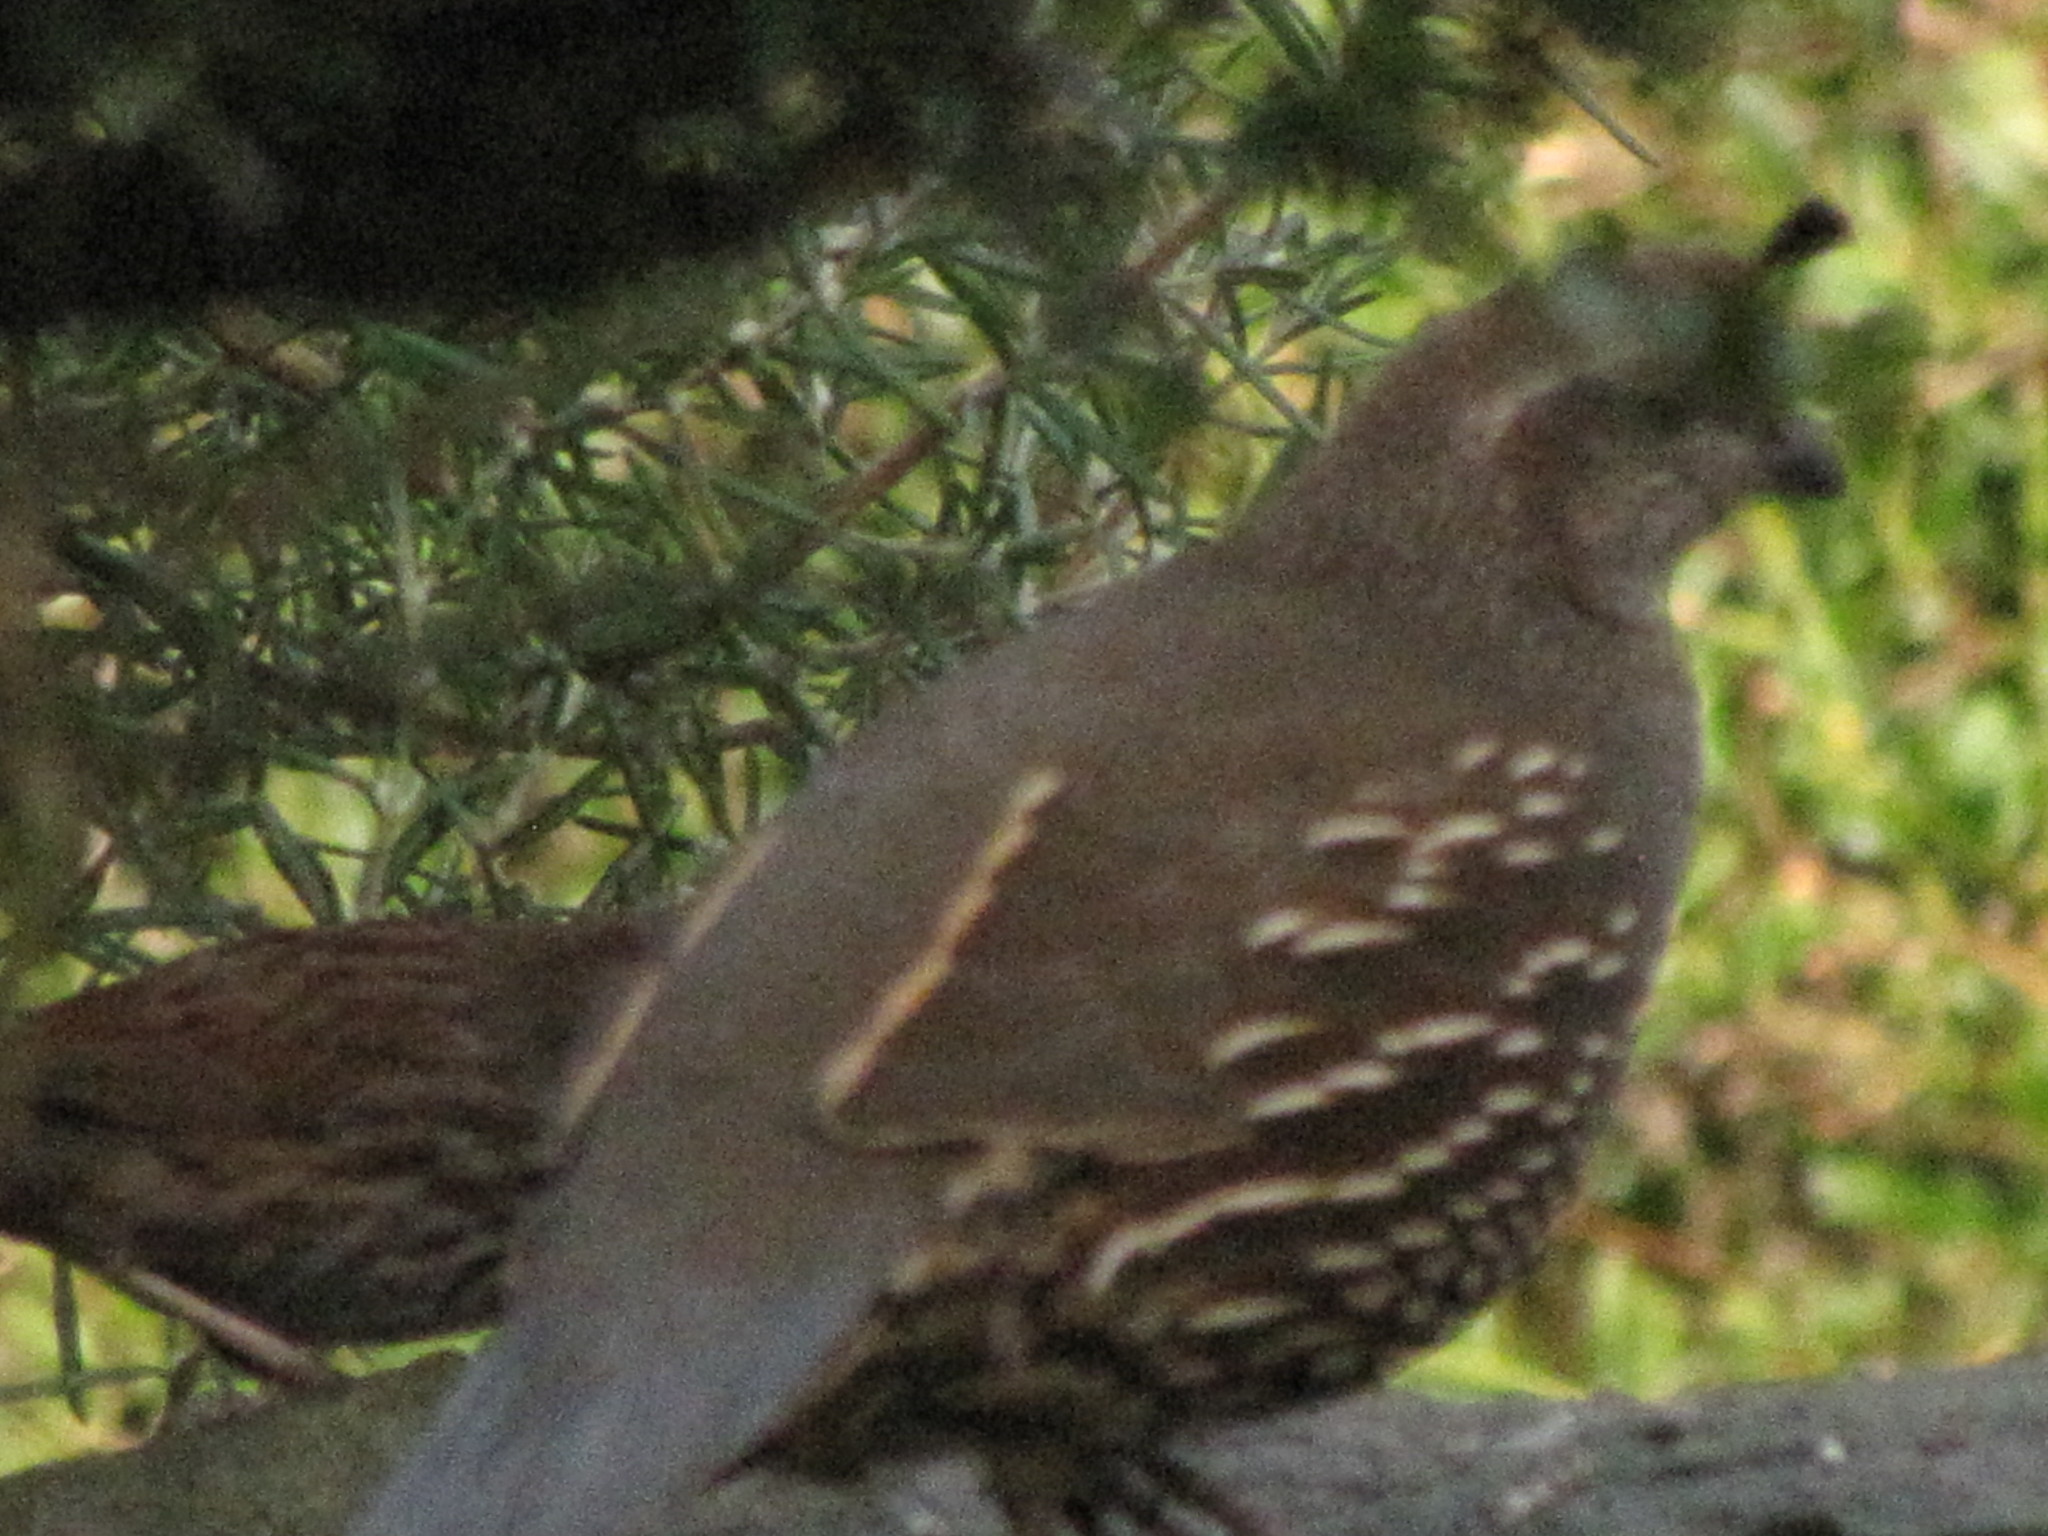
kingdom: Animalia
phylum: Chordata
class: Aves
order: Galliformes
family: Odontophoridae
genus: Callipepla
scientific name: Callipepla californica
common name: California quail
